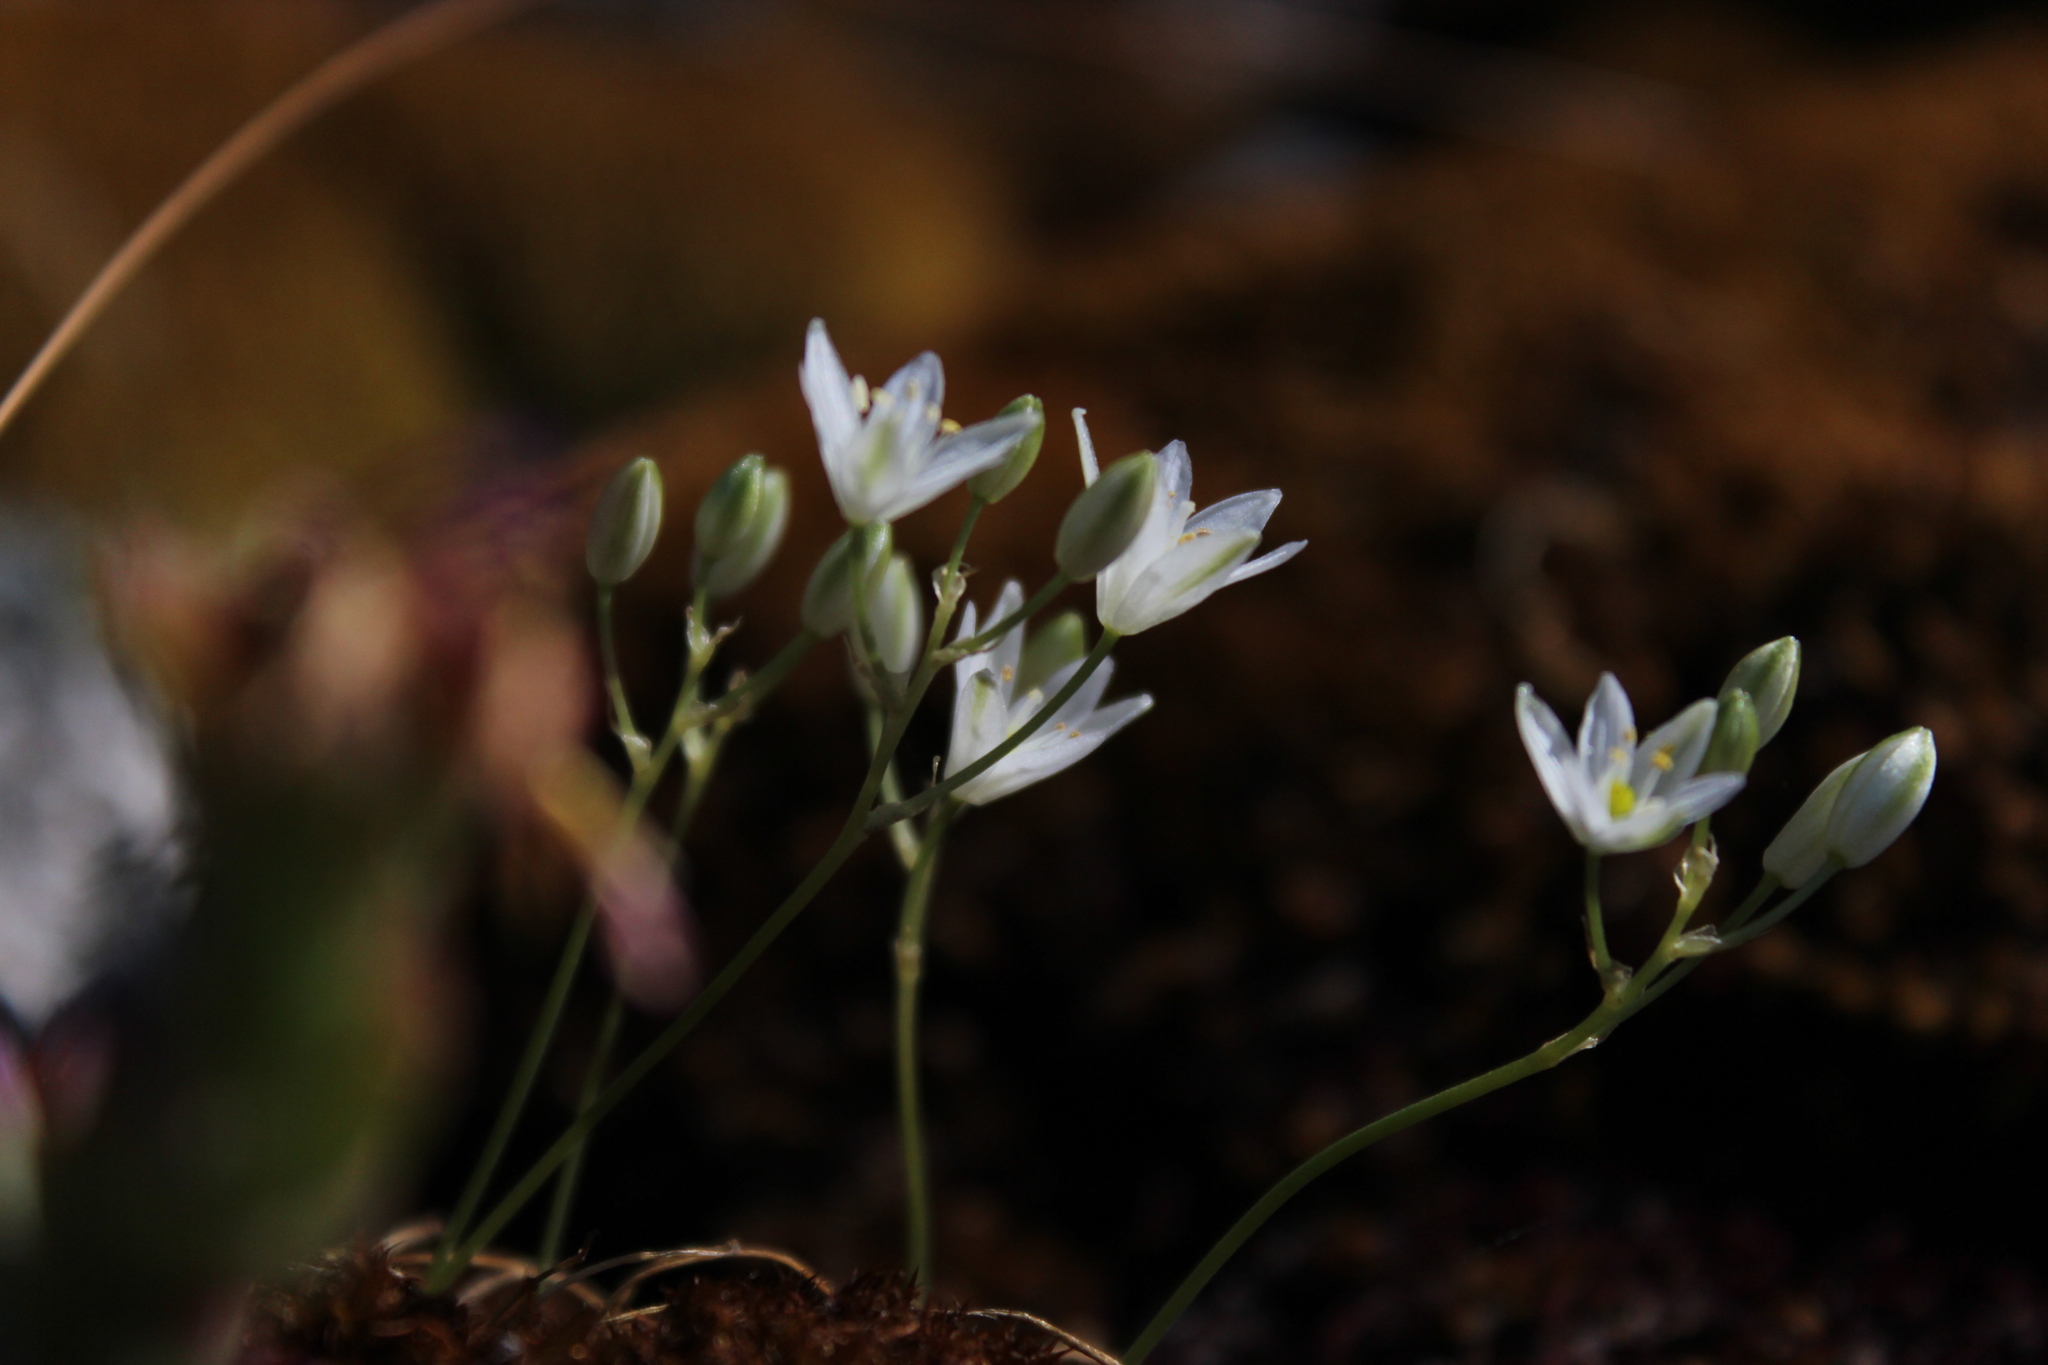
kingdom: Plantae
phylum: Tracheophyta
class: Liliopsida
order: Asparagales
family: Asparagaceae
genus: Ornithogalum
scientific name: Ornithogalum niveum
